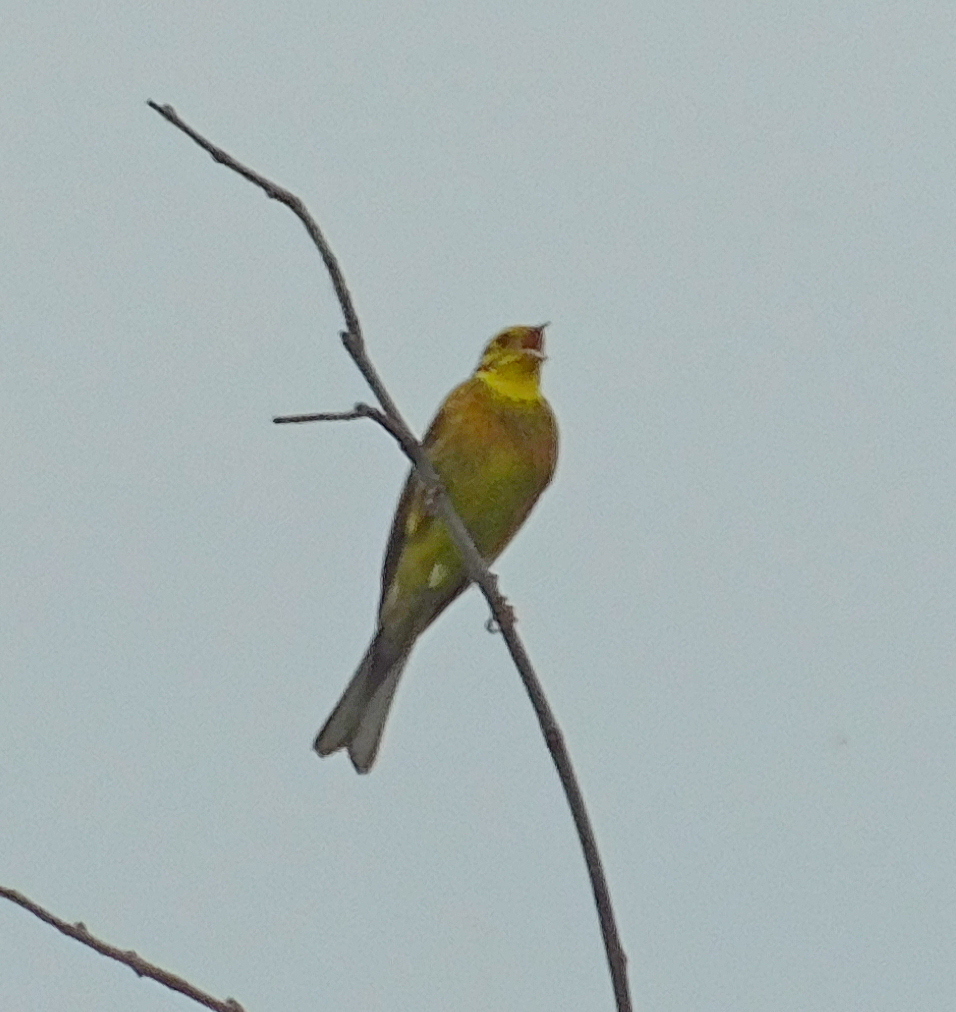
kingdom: Animalia
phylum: Chordata
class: Aves
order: Passeriformes
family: Emberizidae
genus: Emberiza
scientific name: Emberiza citrinella
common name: Yellowhammer
